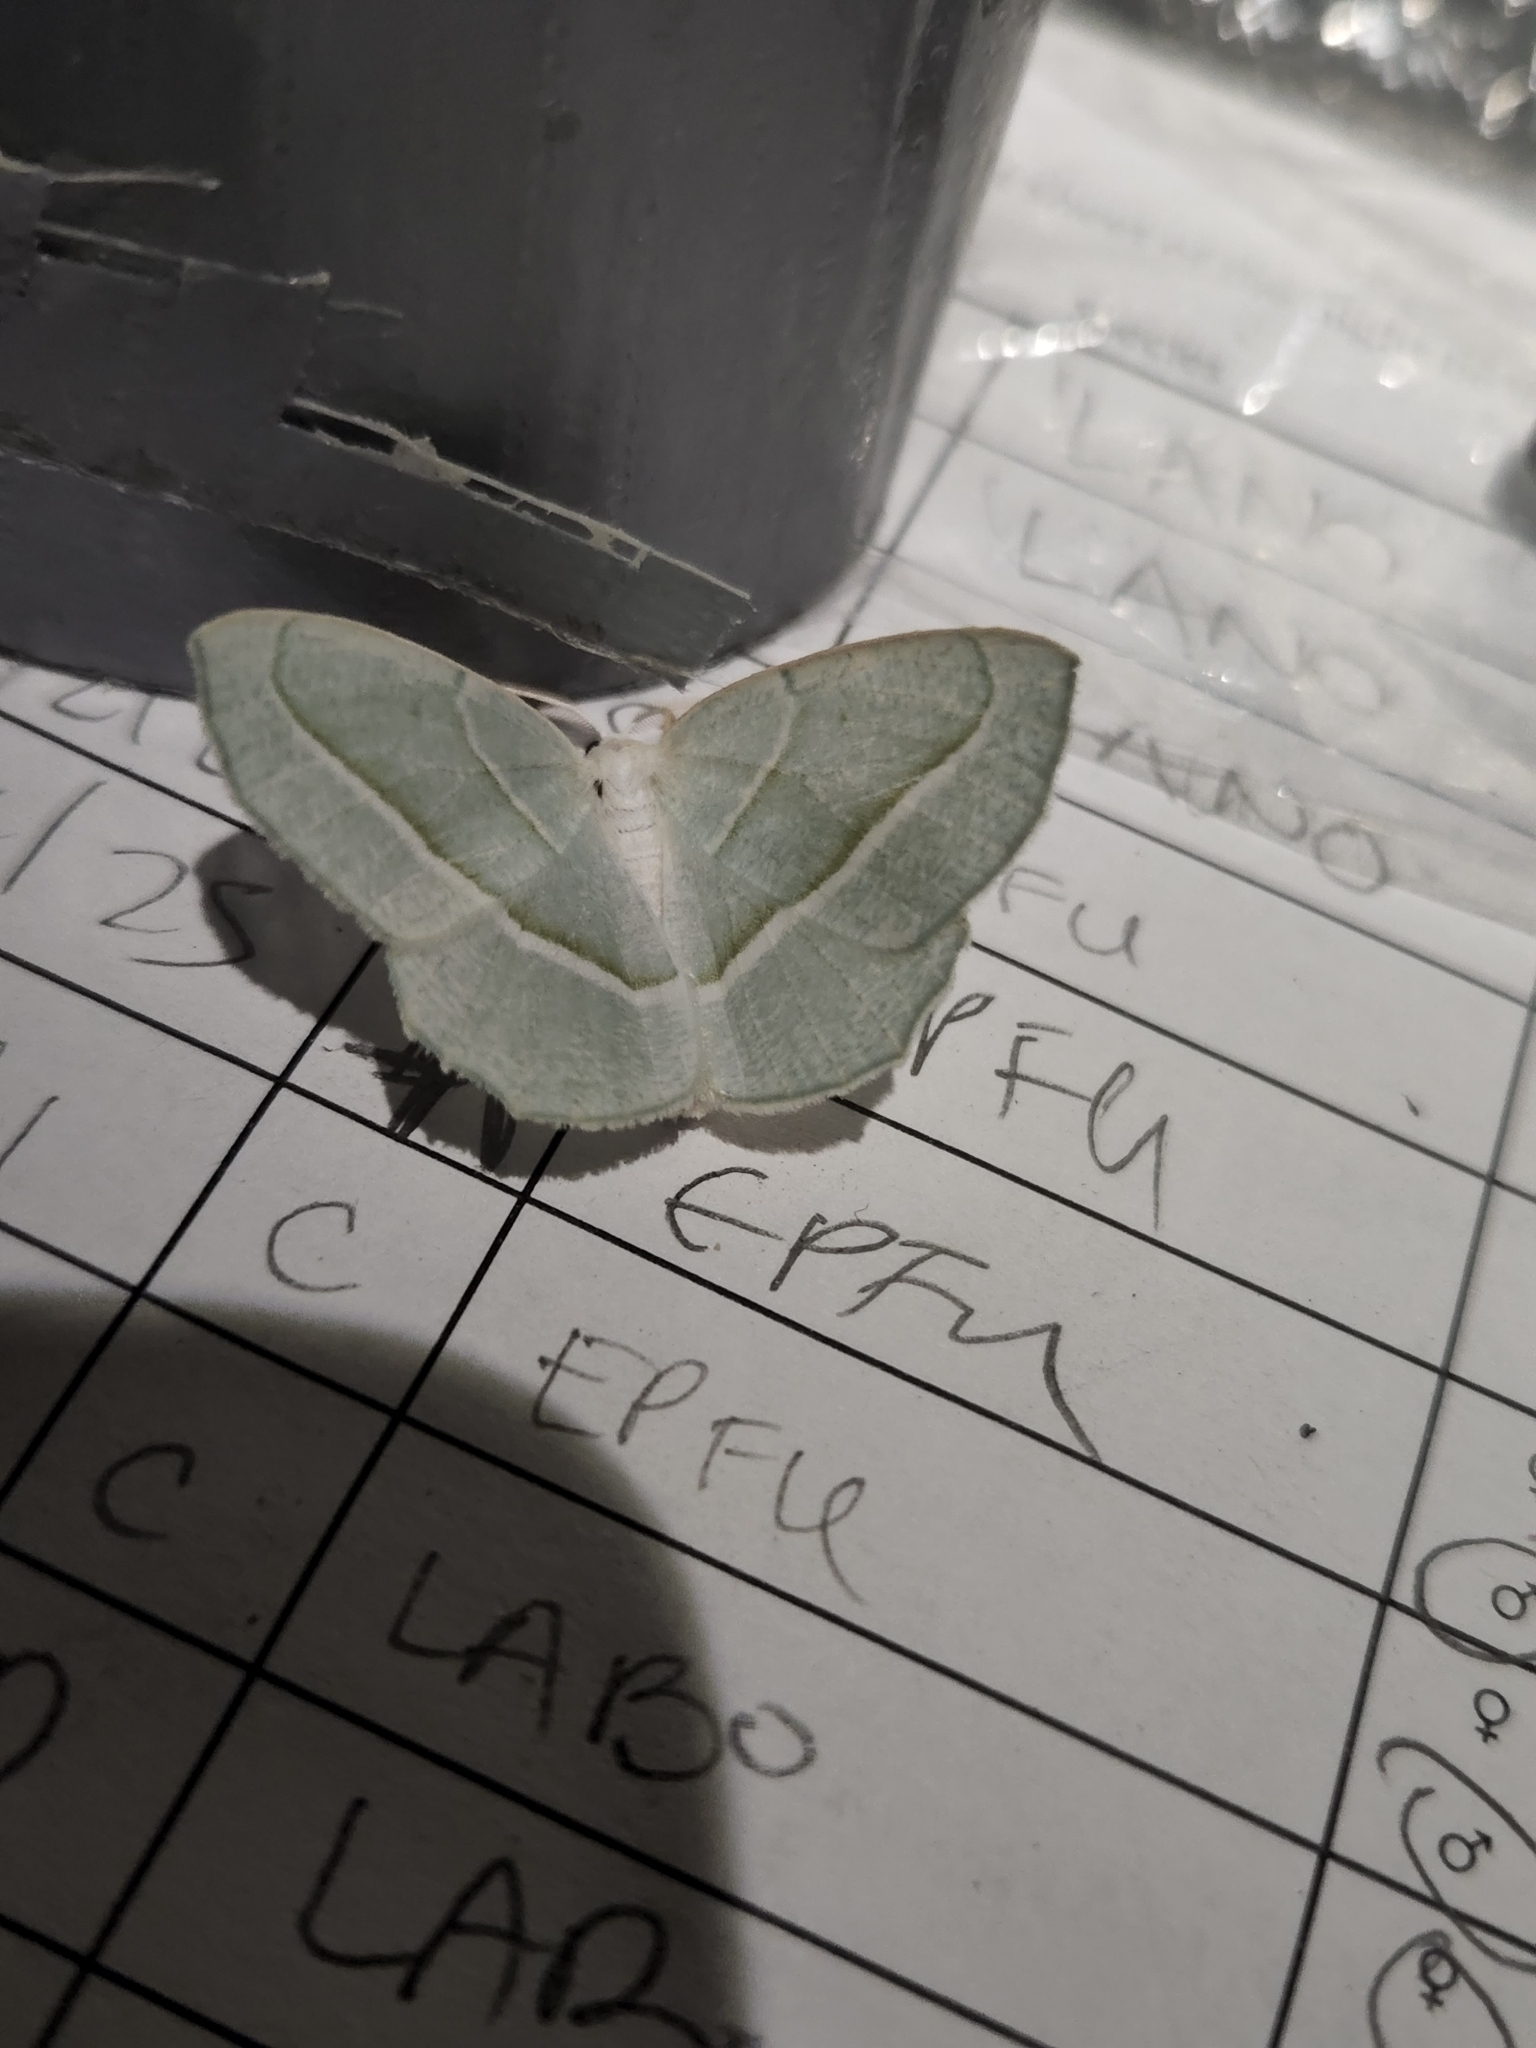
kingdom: Animalia
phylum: Arthropoda
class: Insecta
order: Lepidoptera
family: Geometridae
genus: Campaea
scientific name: Campaea perlata
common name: Fringed looper
